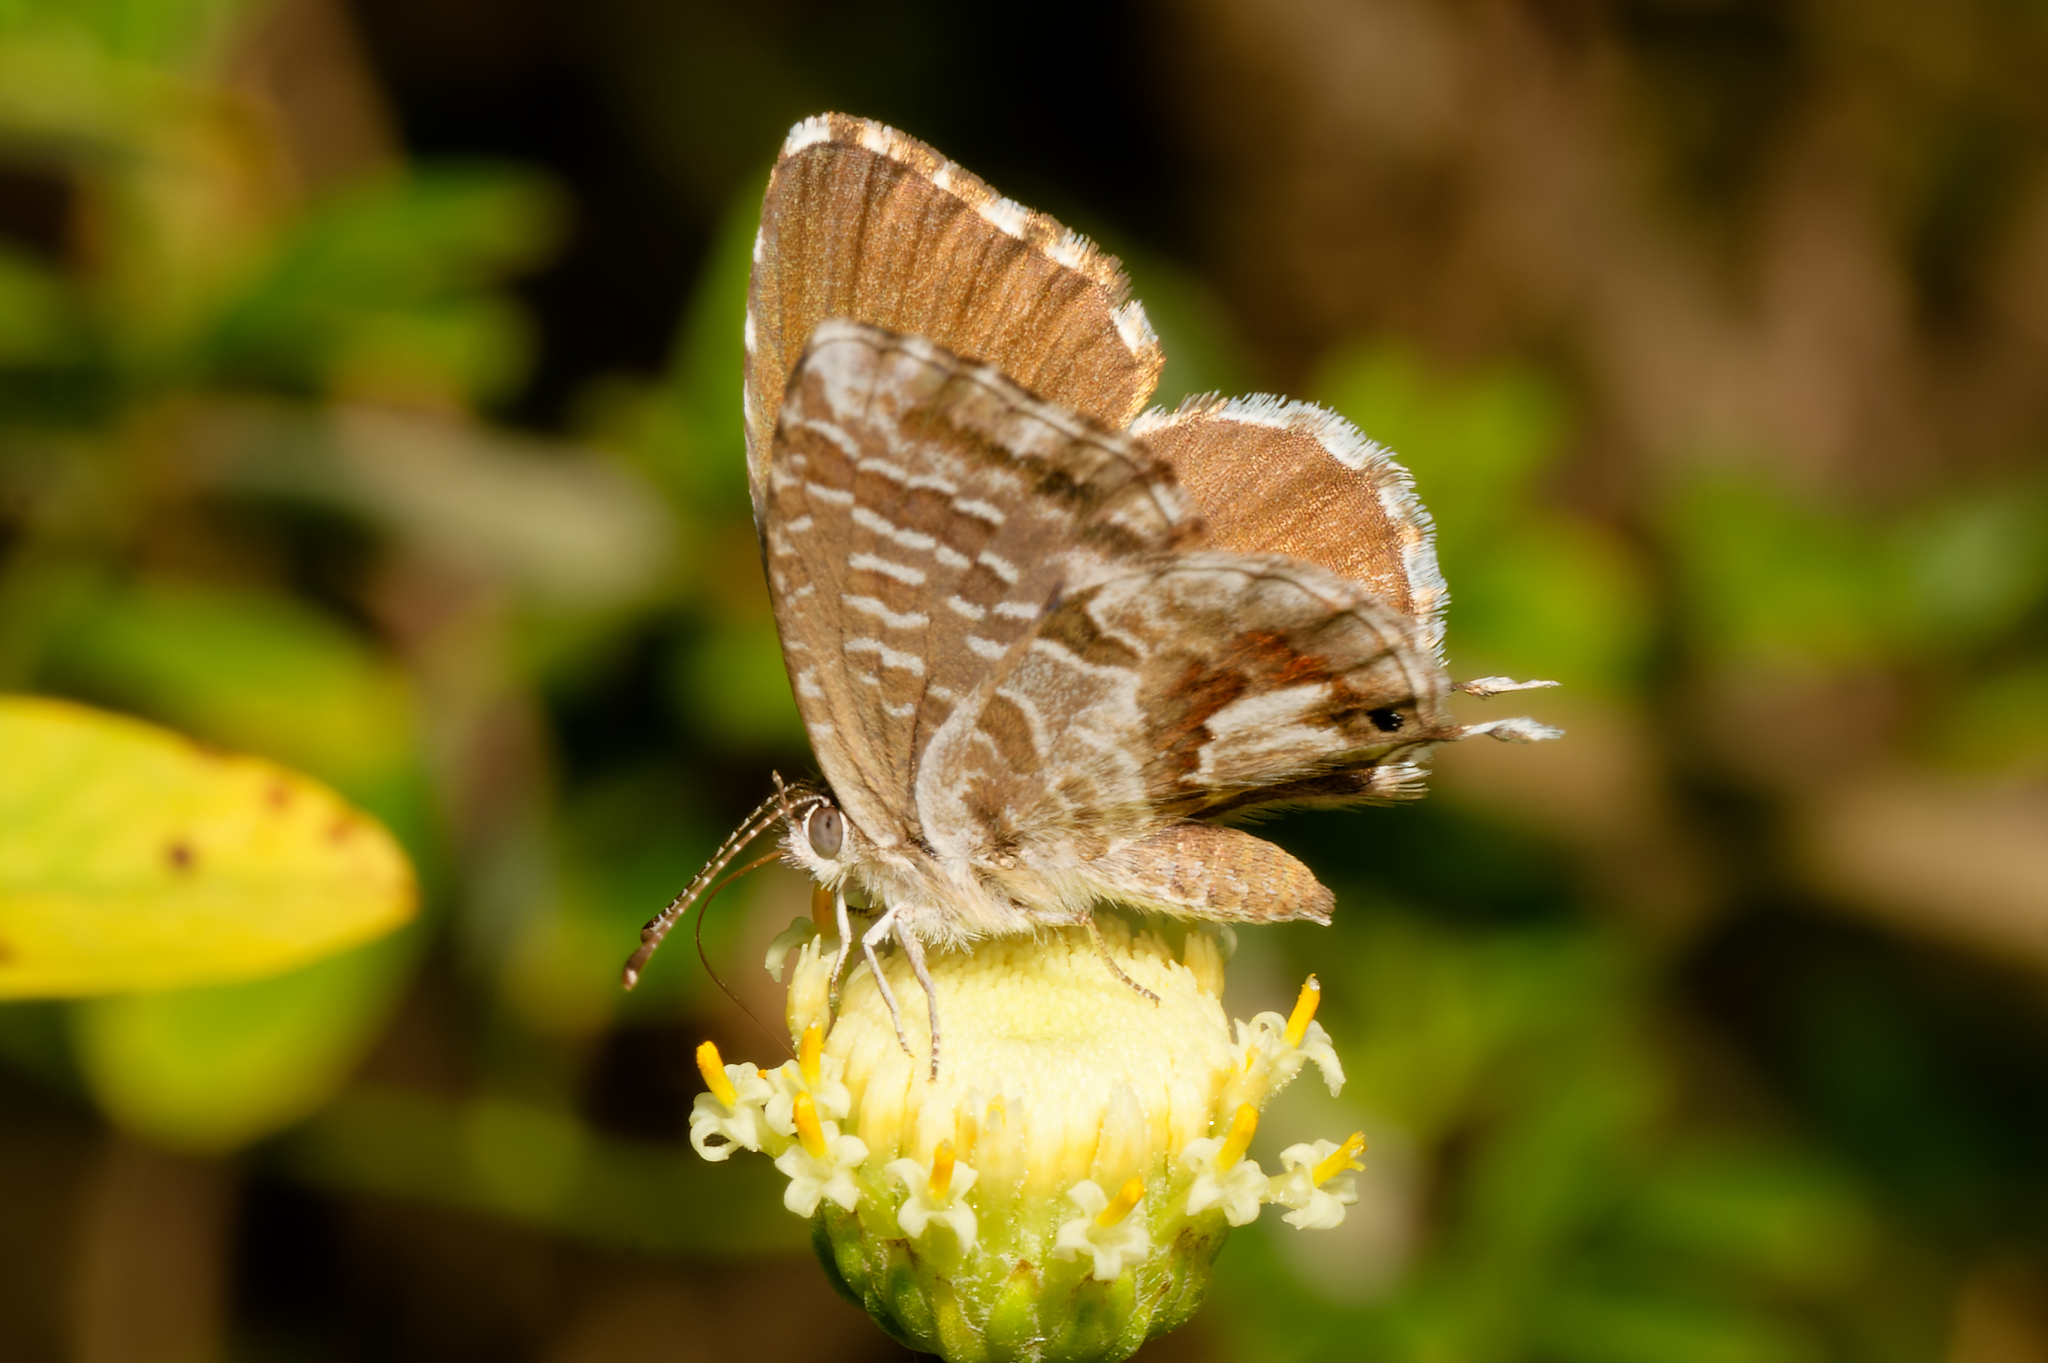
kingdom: Animalia
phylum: Arthropoda
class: Insecta
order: Lepidoptera
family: Lycaenidae
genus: Cacyreus
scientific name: Cacyreus marshalli
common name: Geranium bronze
